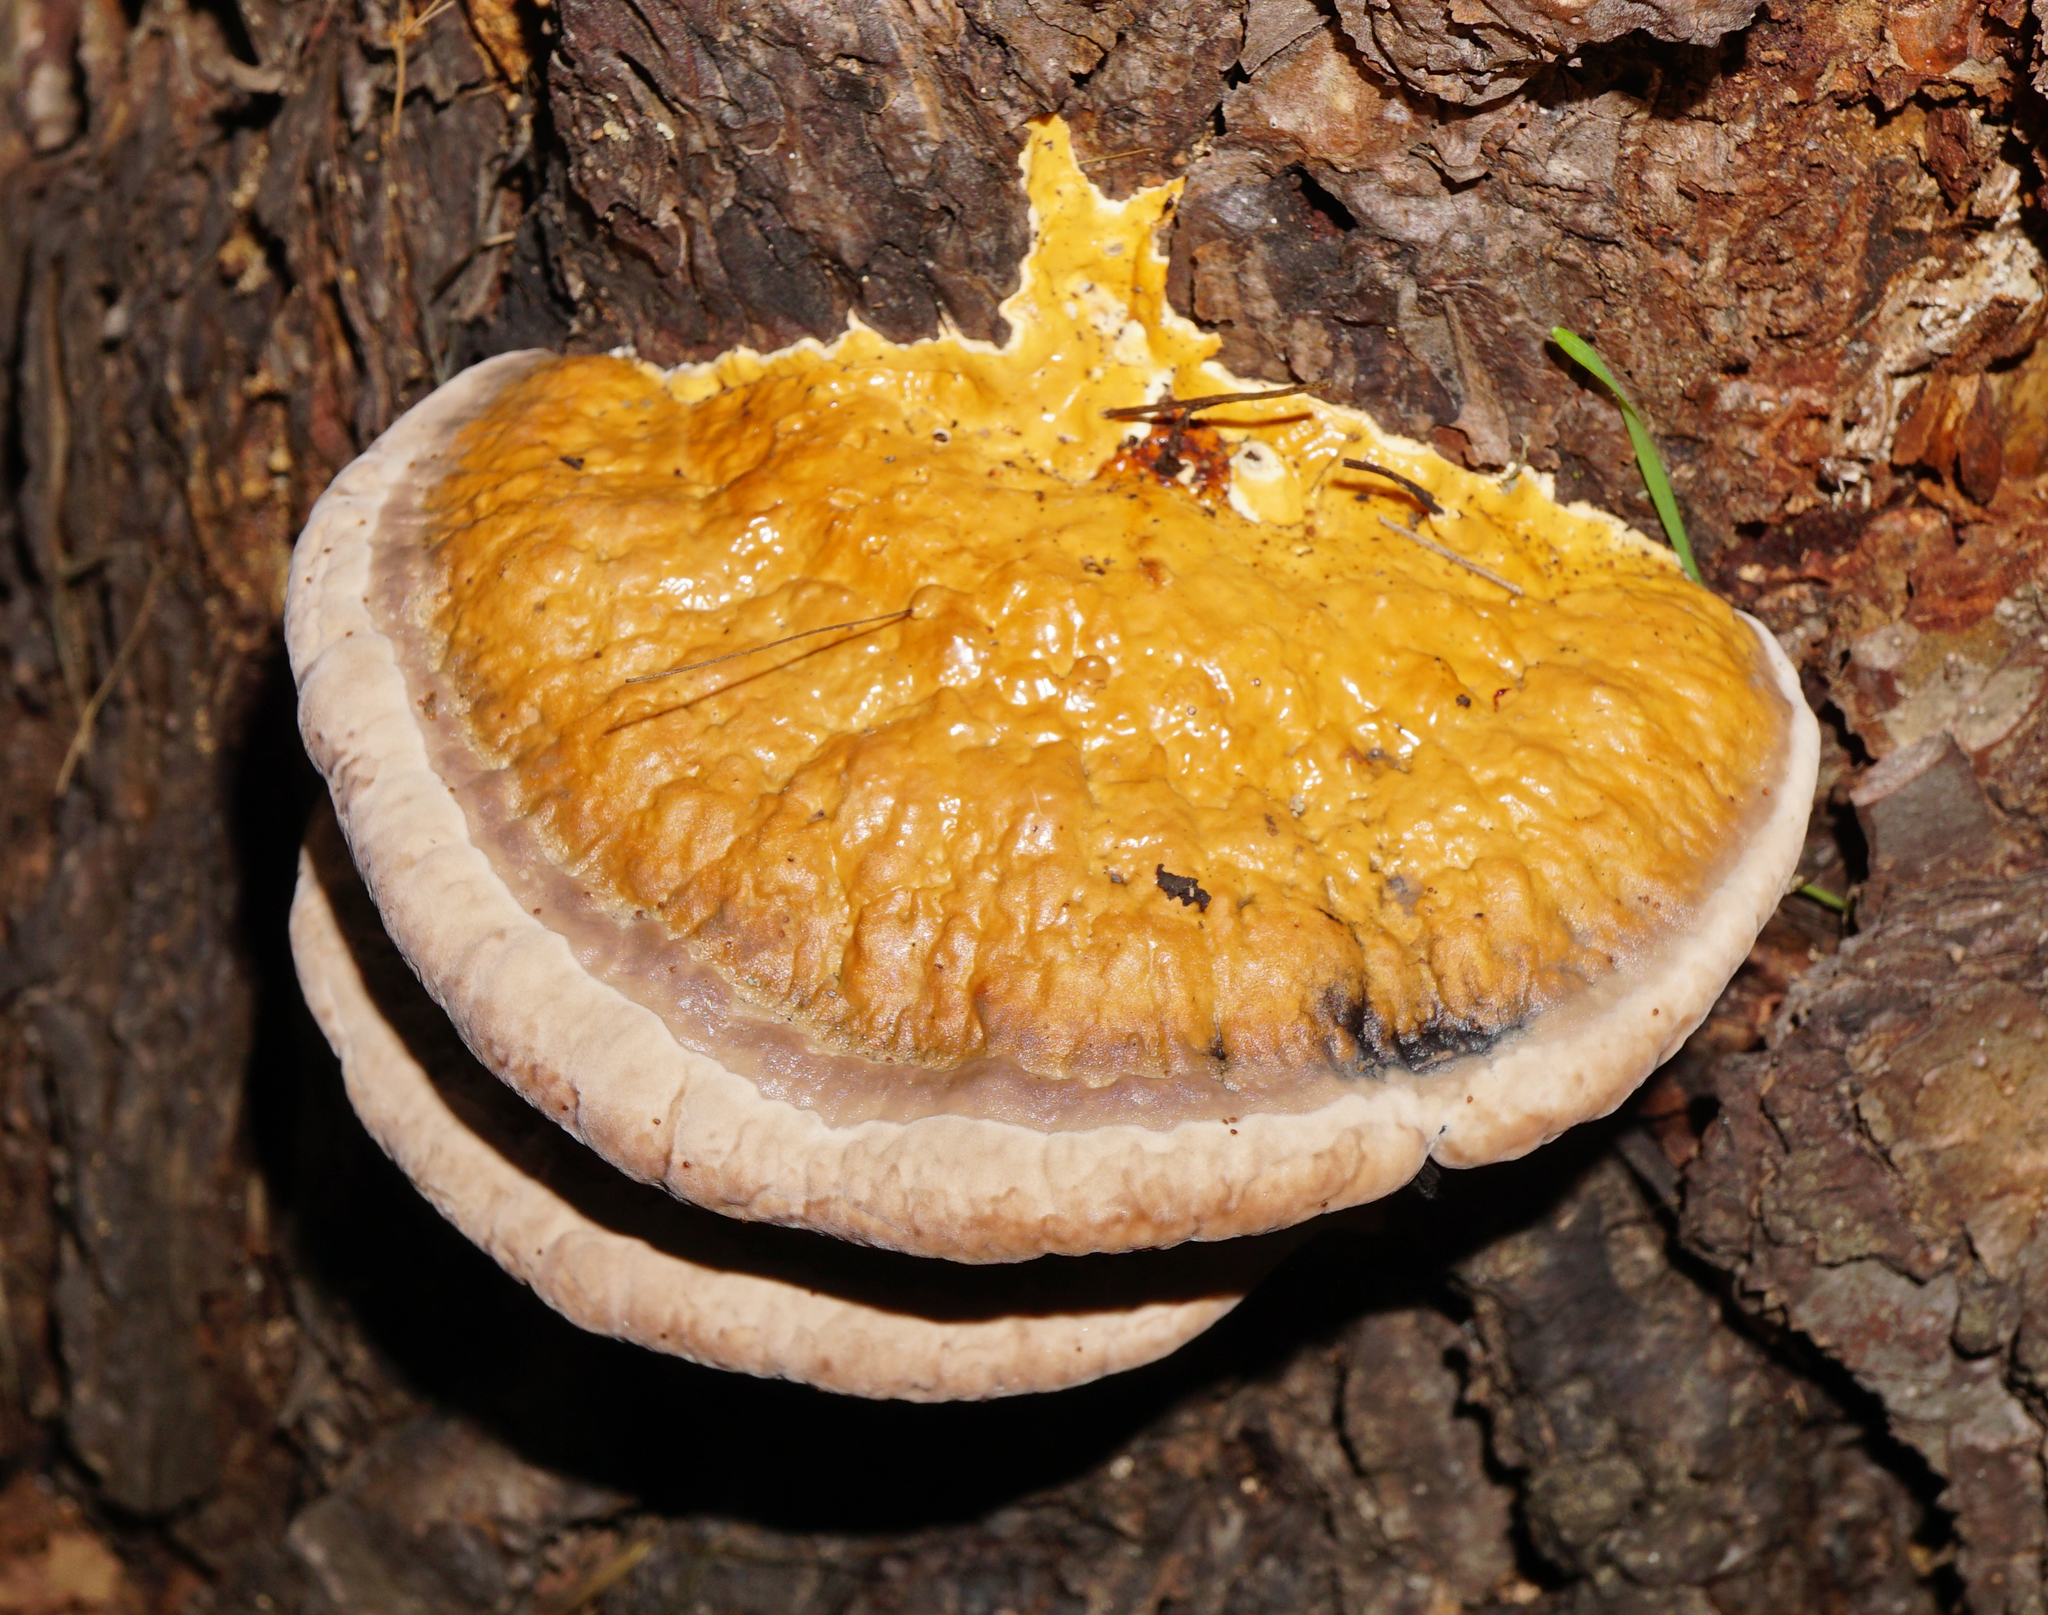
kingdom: Fungi
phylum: Basidiomycota
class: Agaricomycetes
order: Polyporales
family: Fomitopsidaceae
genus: Fomitopsis
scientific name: Fomitopsis pinicola
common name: Red-belted bracket
